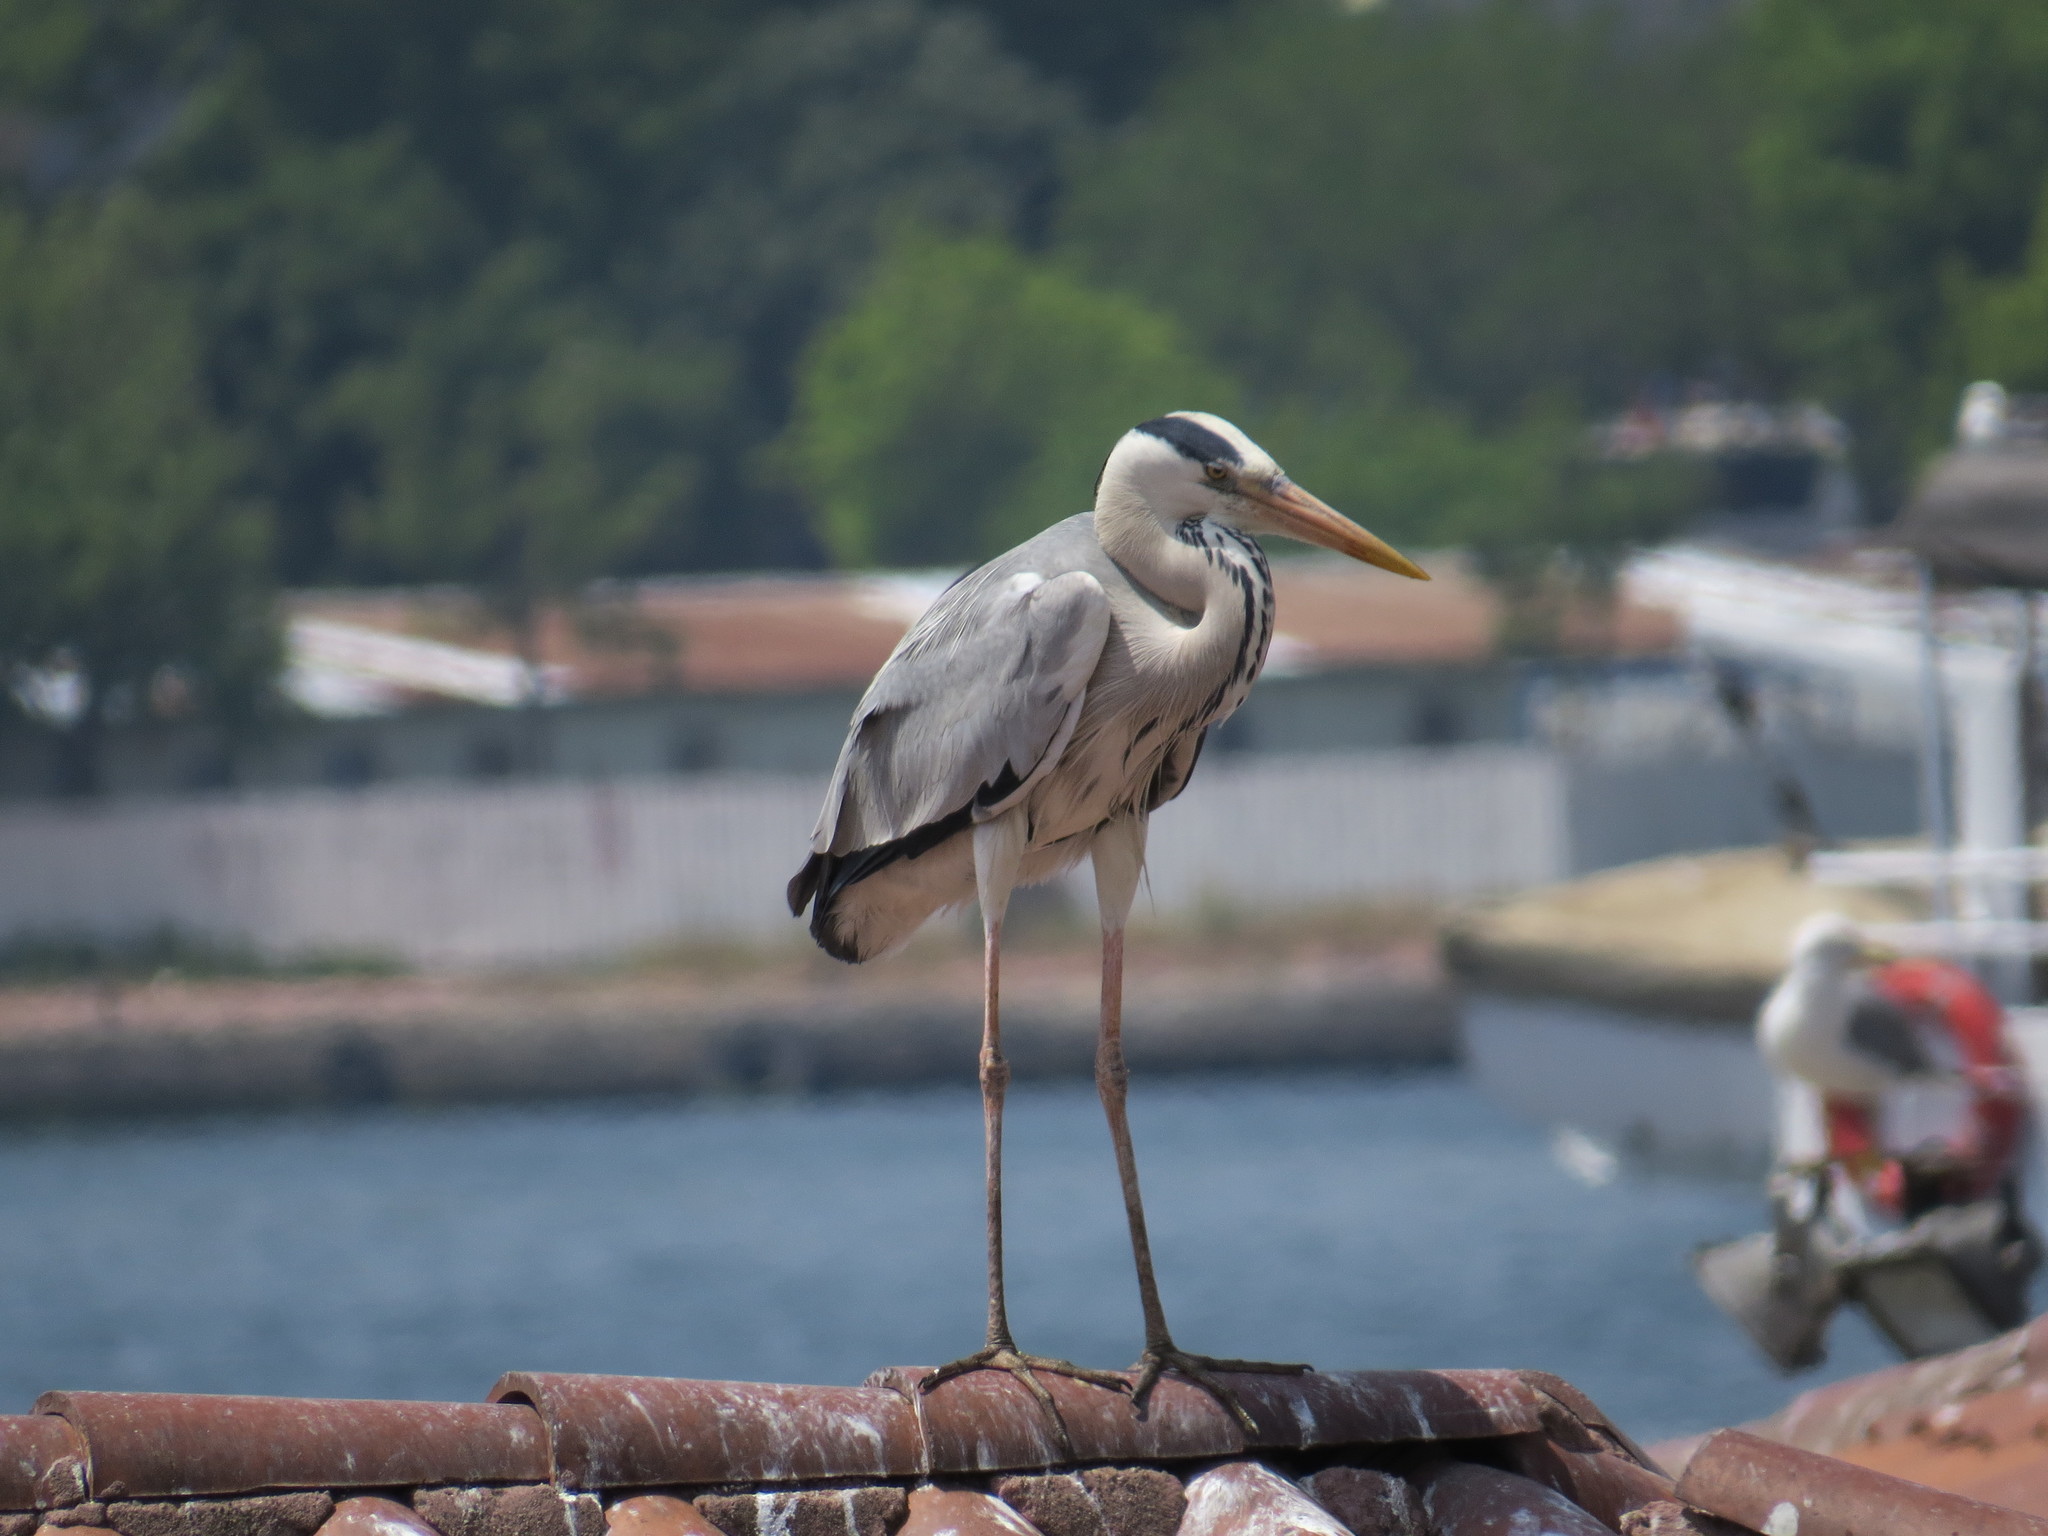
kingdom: Animalia
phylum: Chordata
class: Aves
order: Pelecaniformes
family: Ardeidae
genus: Ardea
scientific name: Ardea cinerea
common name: Grey heron
